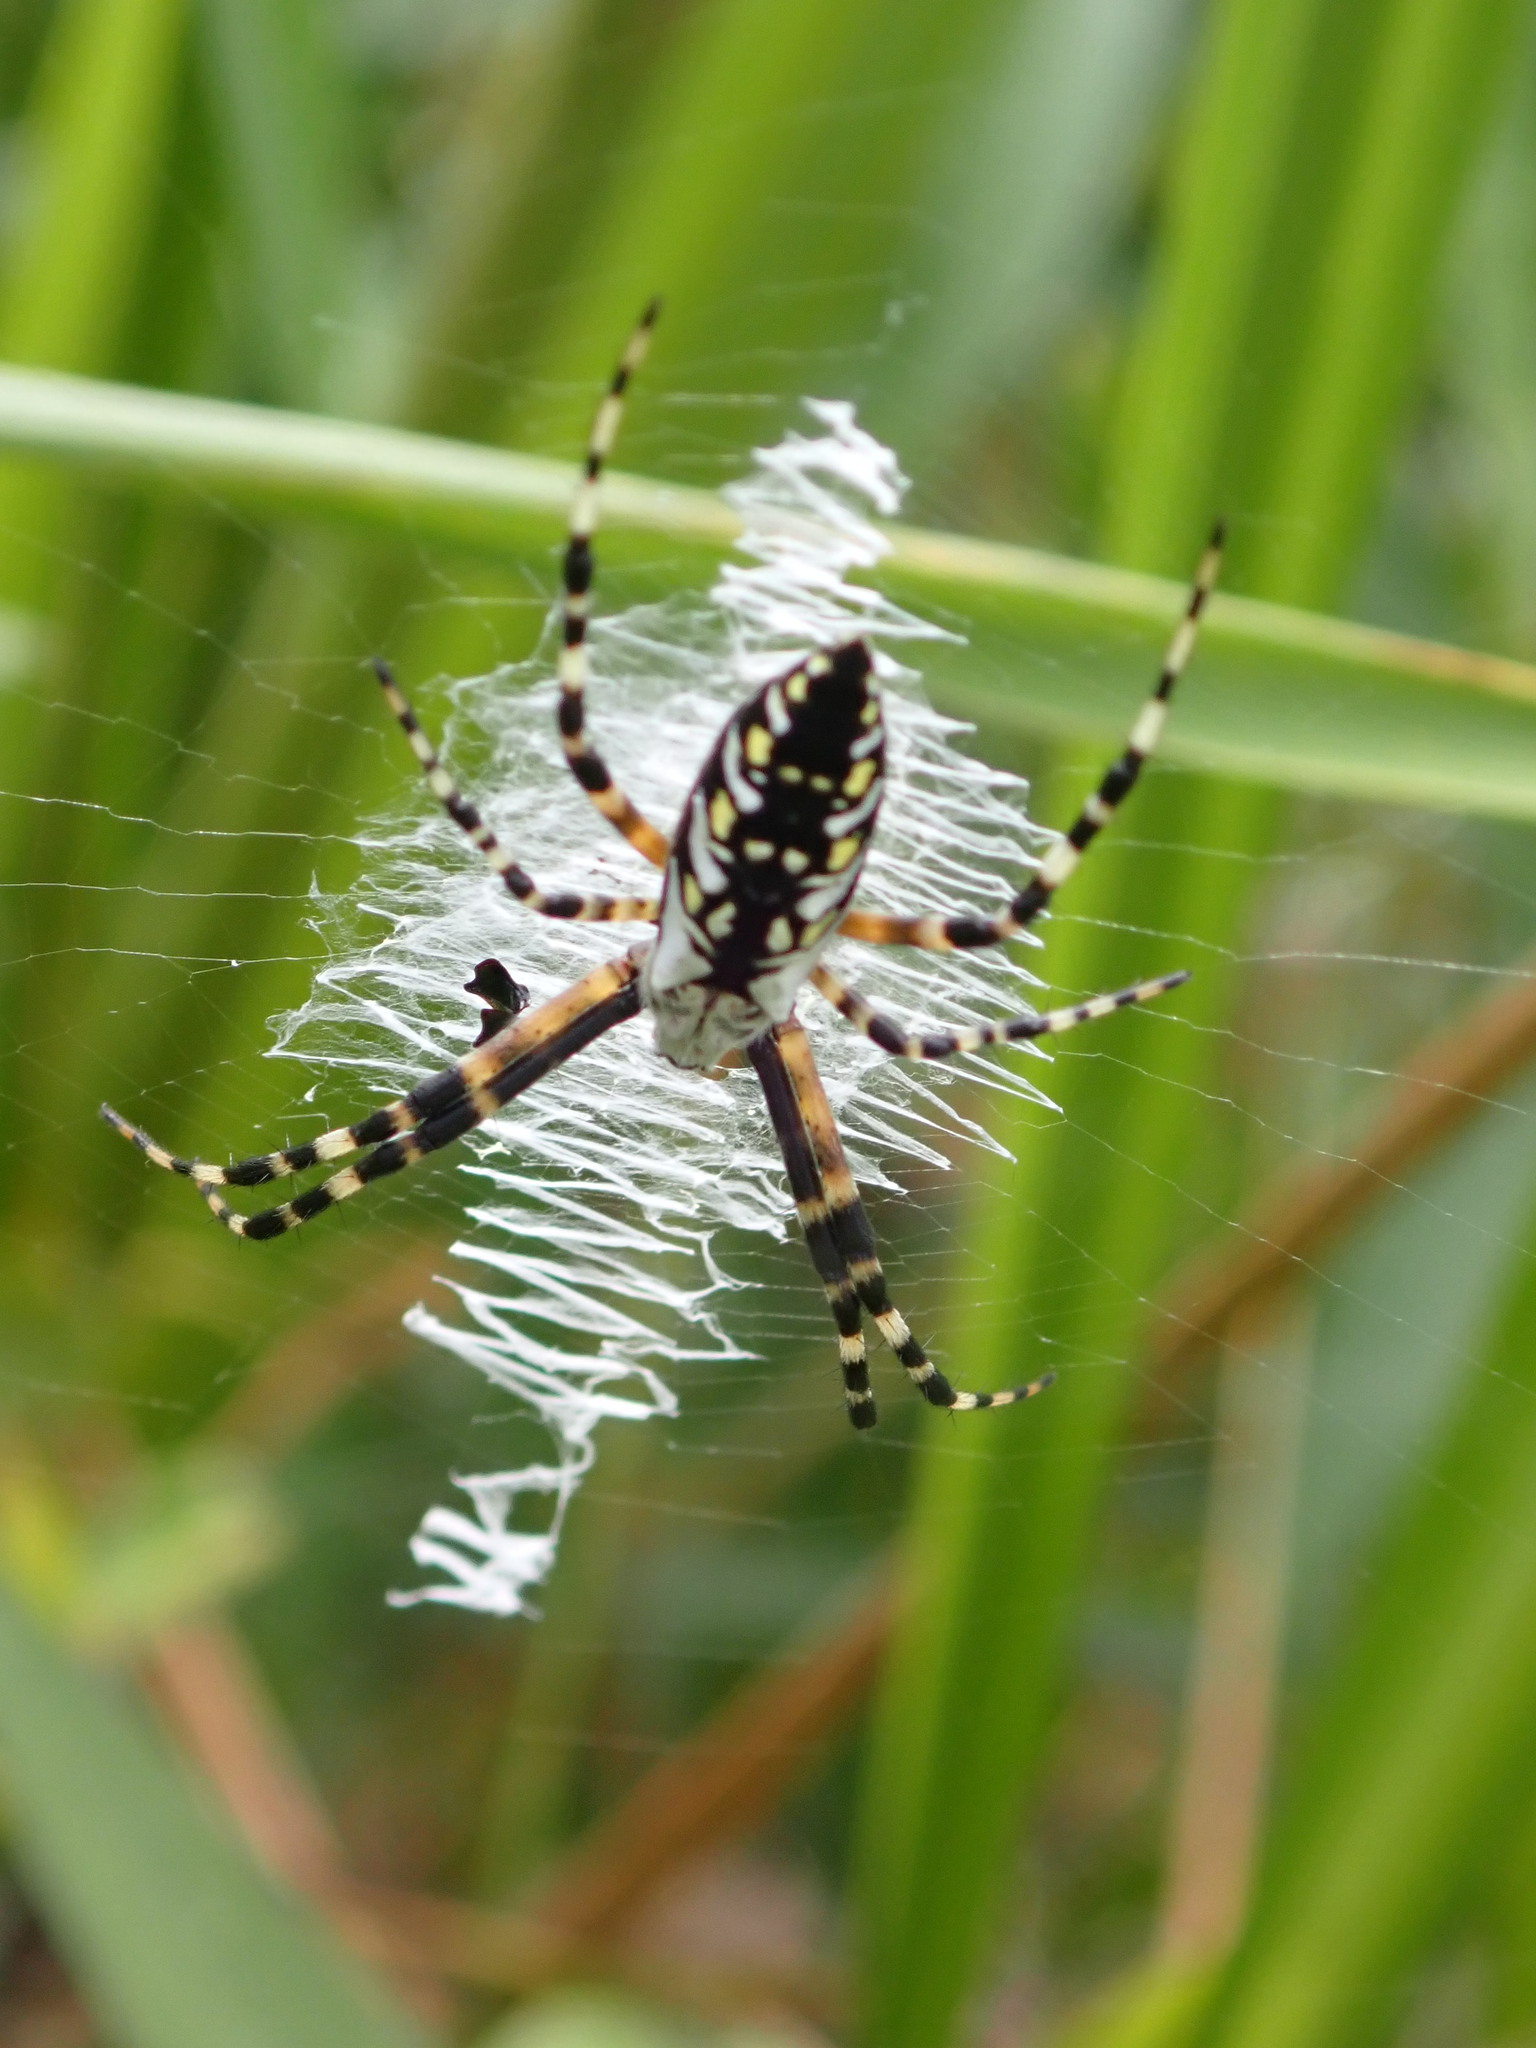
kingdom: Animalia
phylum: Arthropoda
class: Arachnida
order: Araneae
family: Araneidae
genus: Argiope
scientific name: Argiope aurantia
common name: Orb weavers
